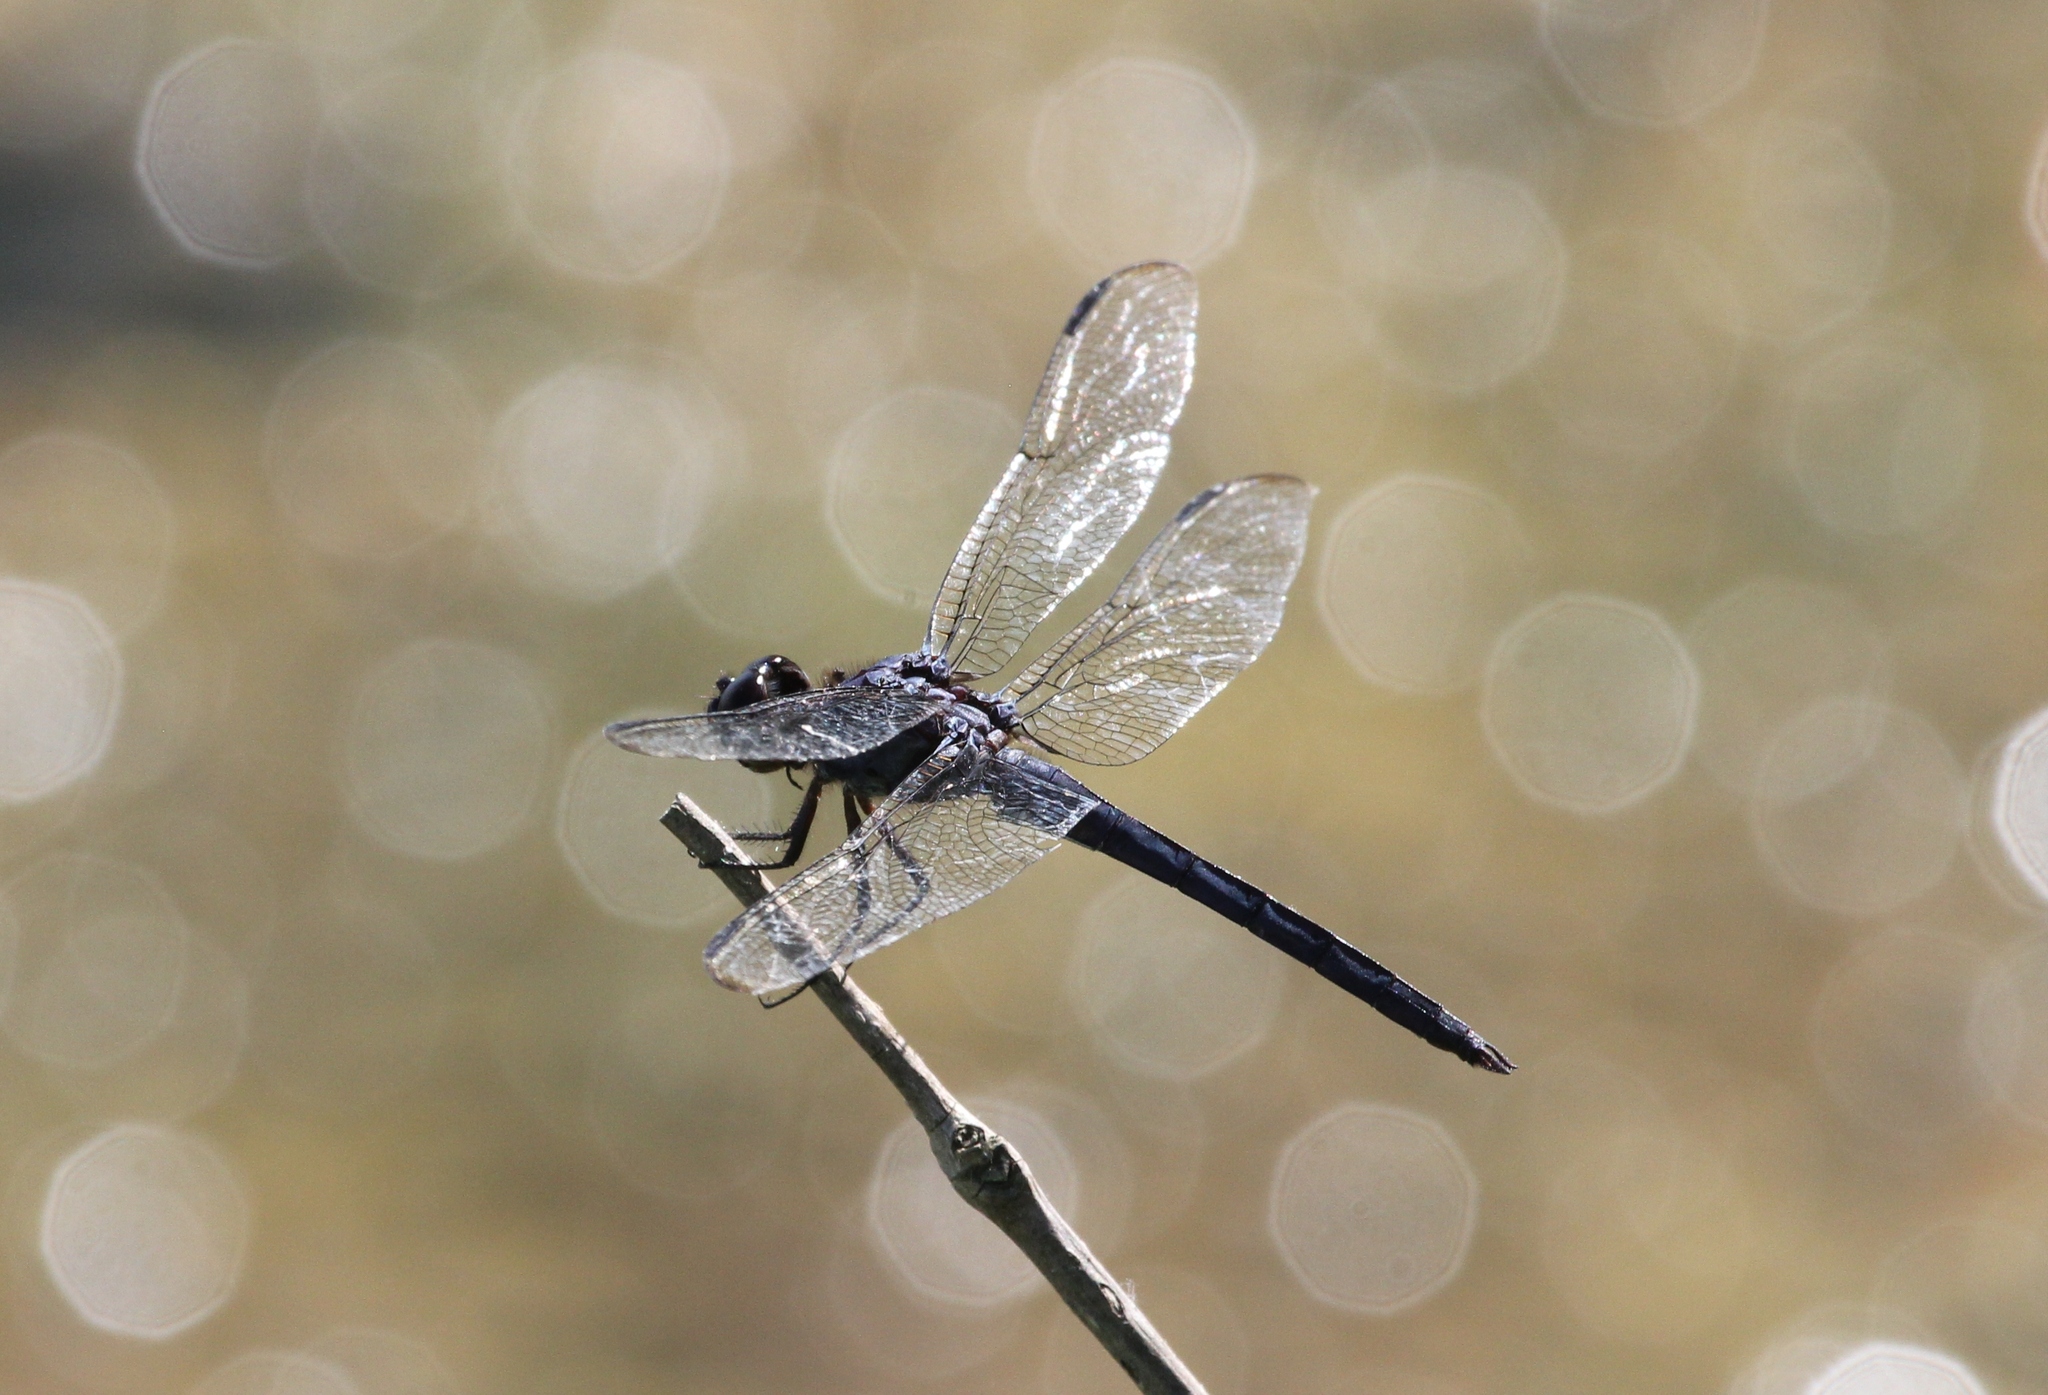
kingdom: Animalia
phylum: Arthropoda
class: Insecta
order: Odonata
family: Libellulidae
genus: Libellula
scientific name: Libellula incesta
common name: Slaty skimmer
